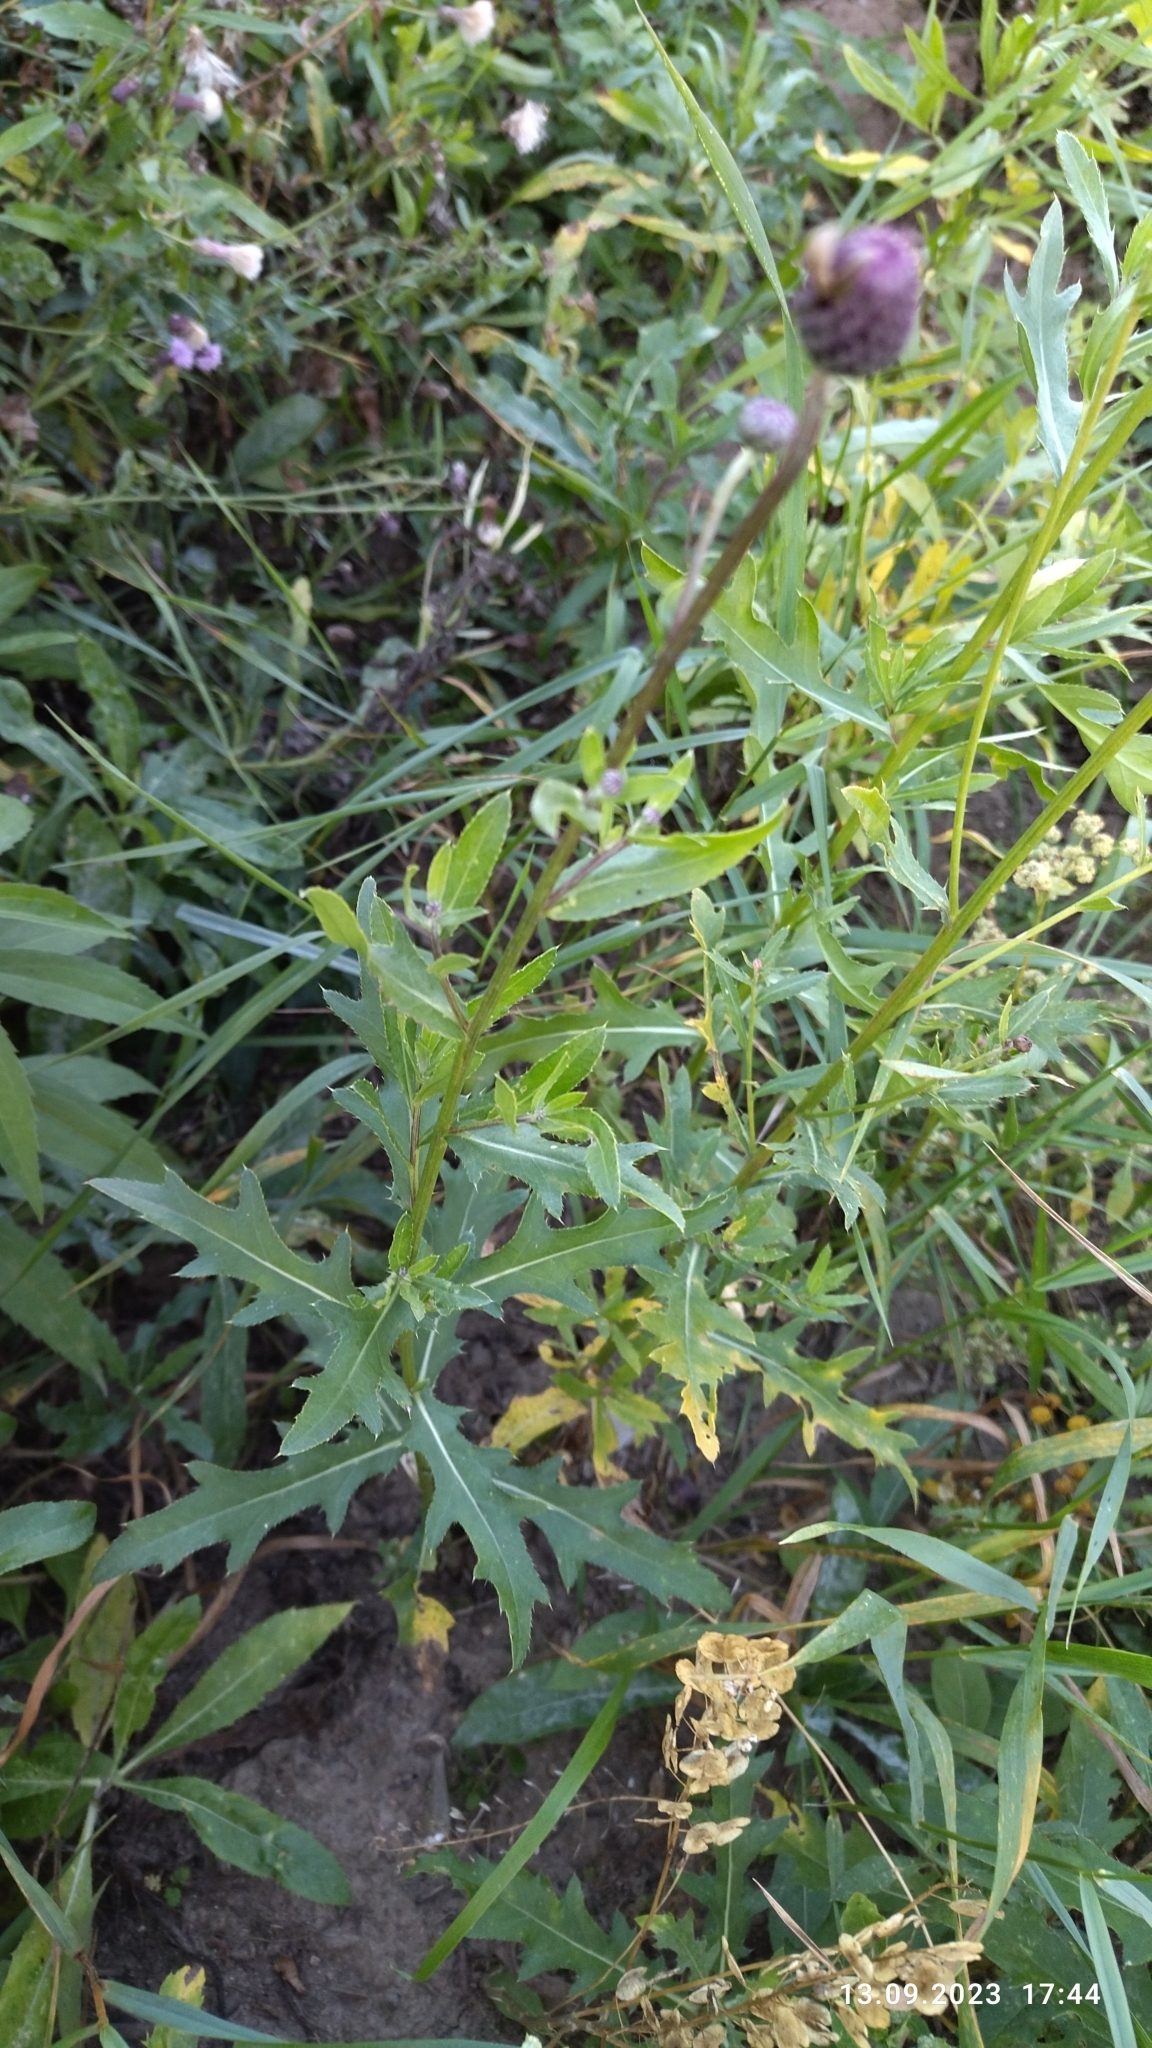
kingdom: Plantae
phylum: Tracheophyta
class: Magnoliopsida
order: Asterales
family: Asteraceae
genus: Cirsium
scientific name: Cirsium arvense
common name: Creeping thistle
